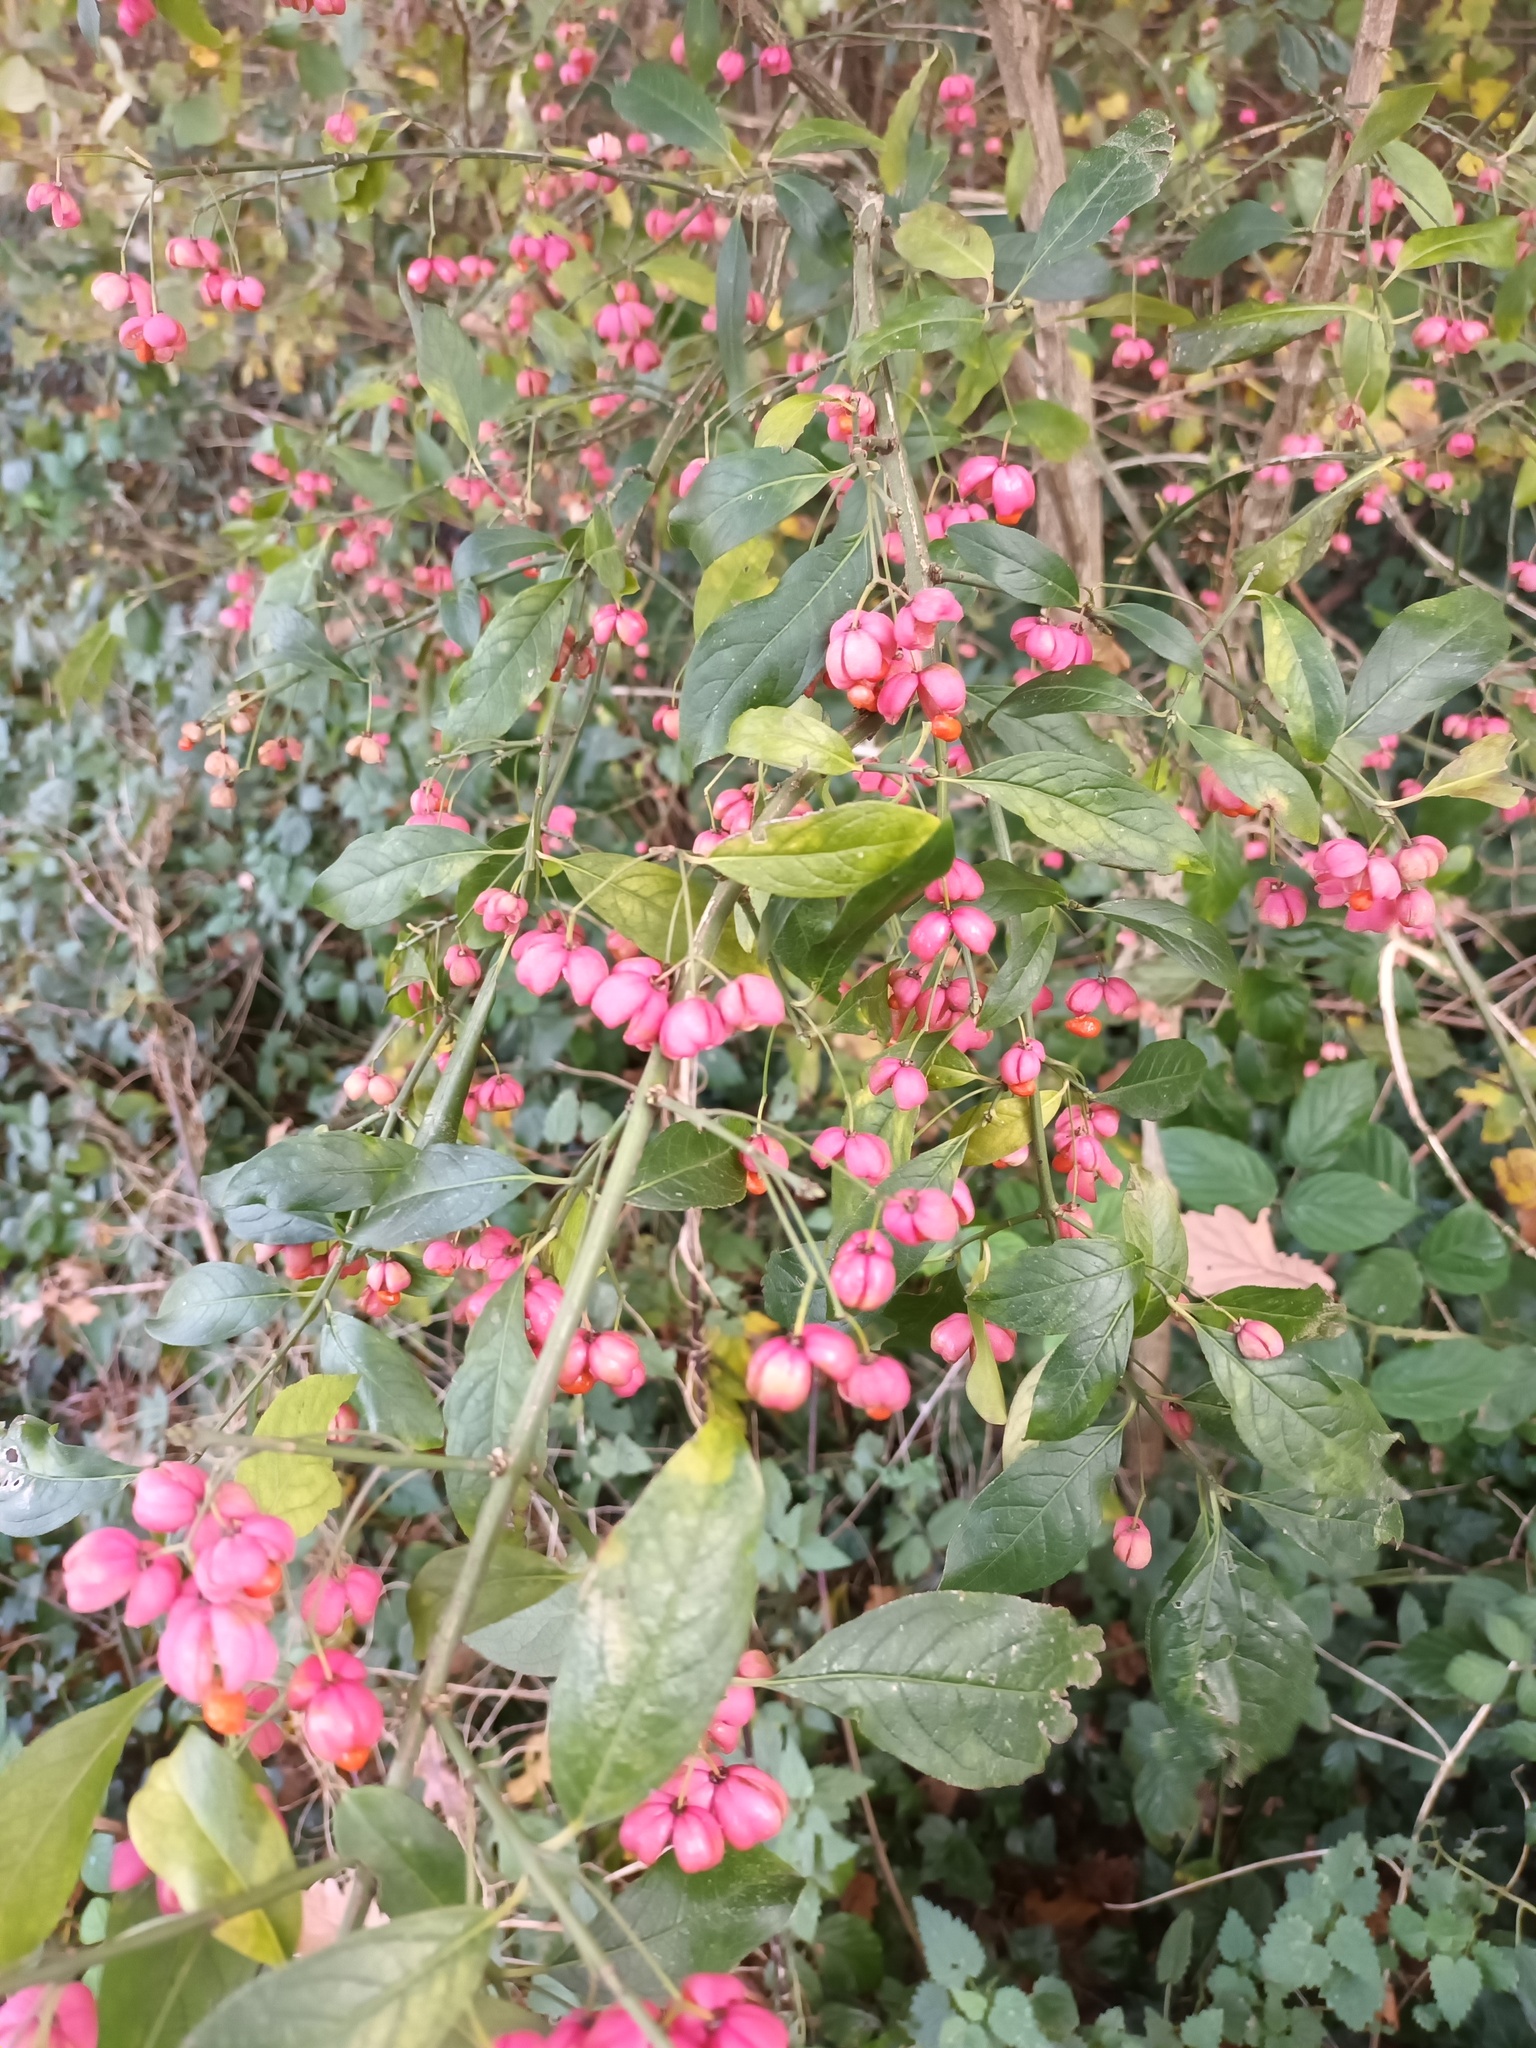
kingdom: Plantae
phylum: Tracheophyta
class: Magnoliopsida
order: Celastrales
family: Celastraceae
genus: Euonymus
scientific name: Euonymus europaeus
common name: Spindle
